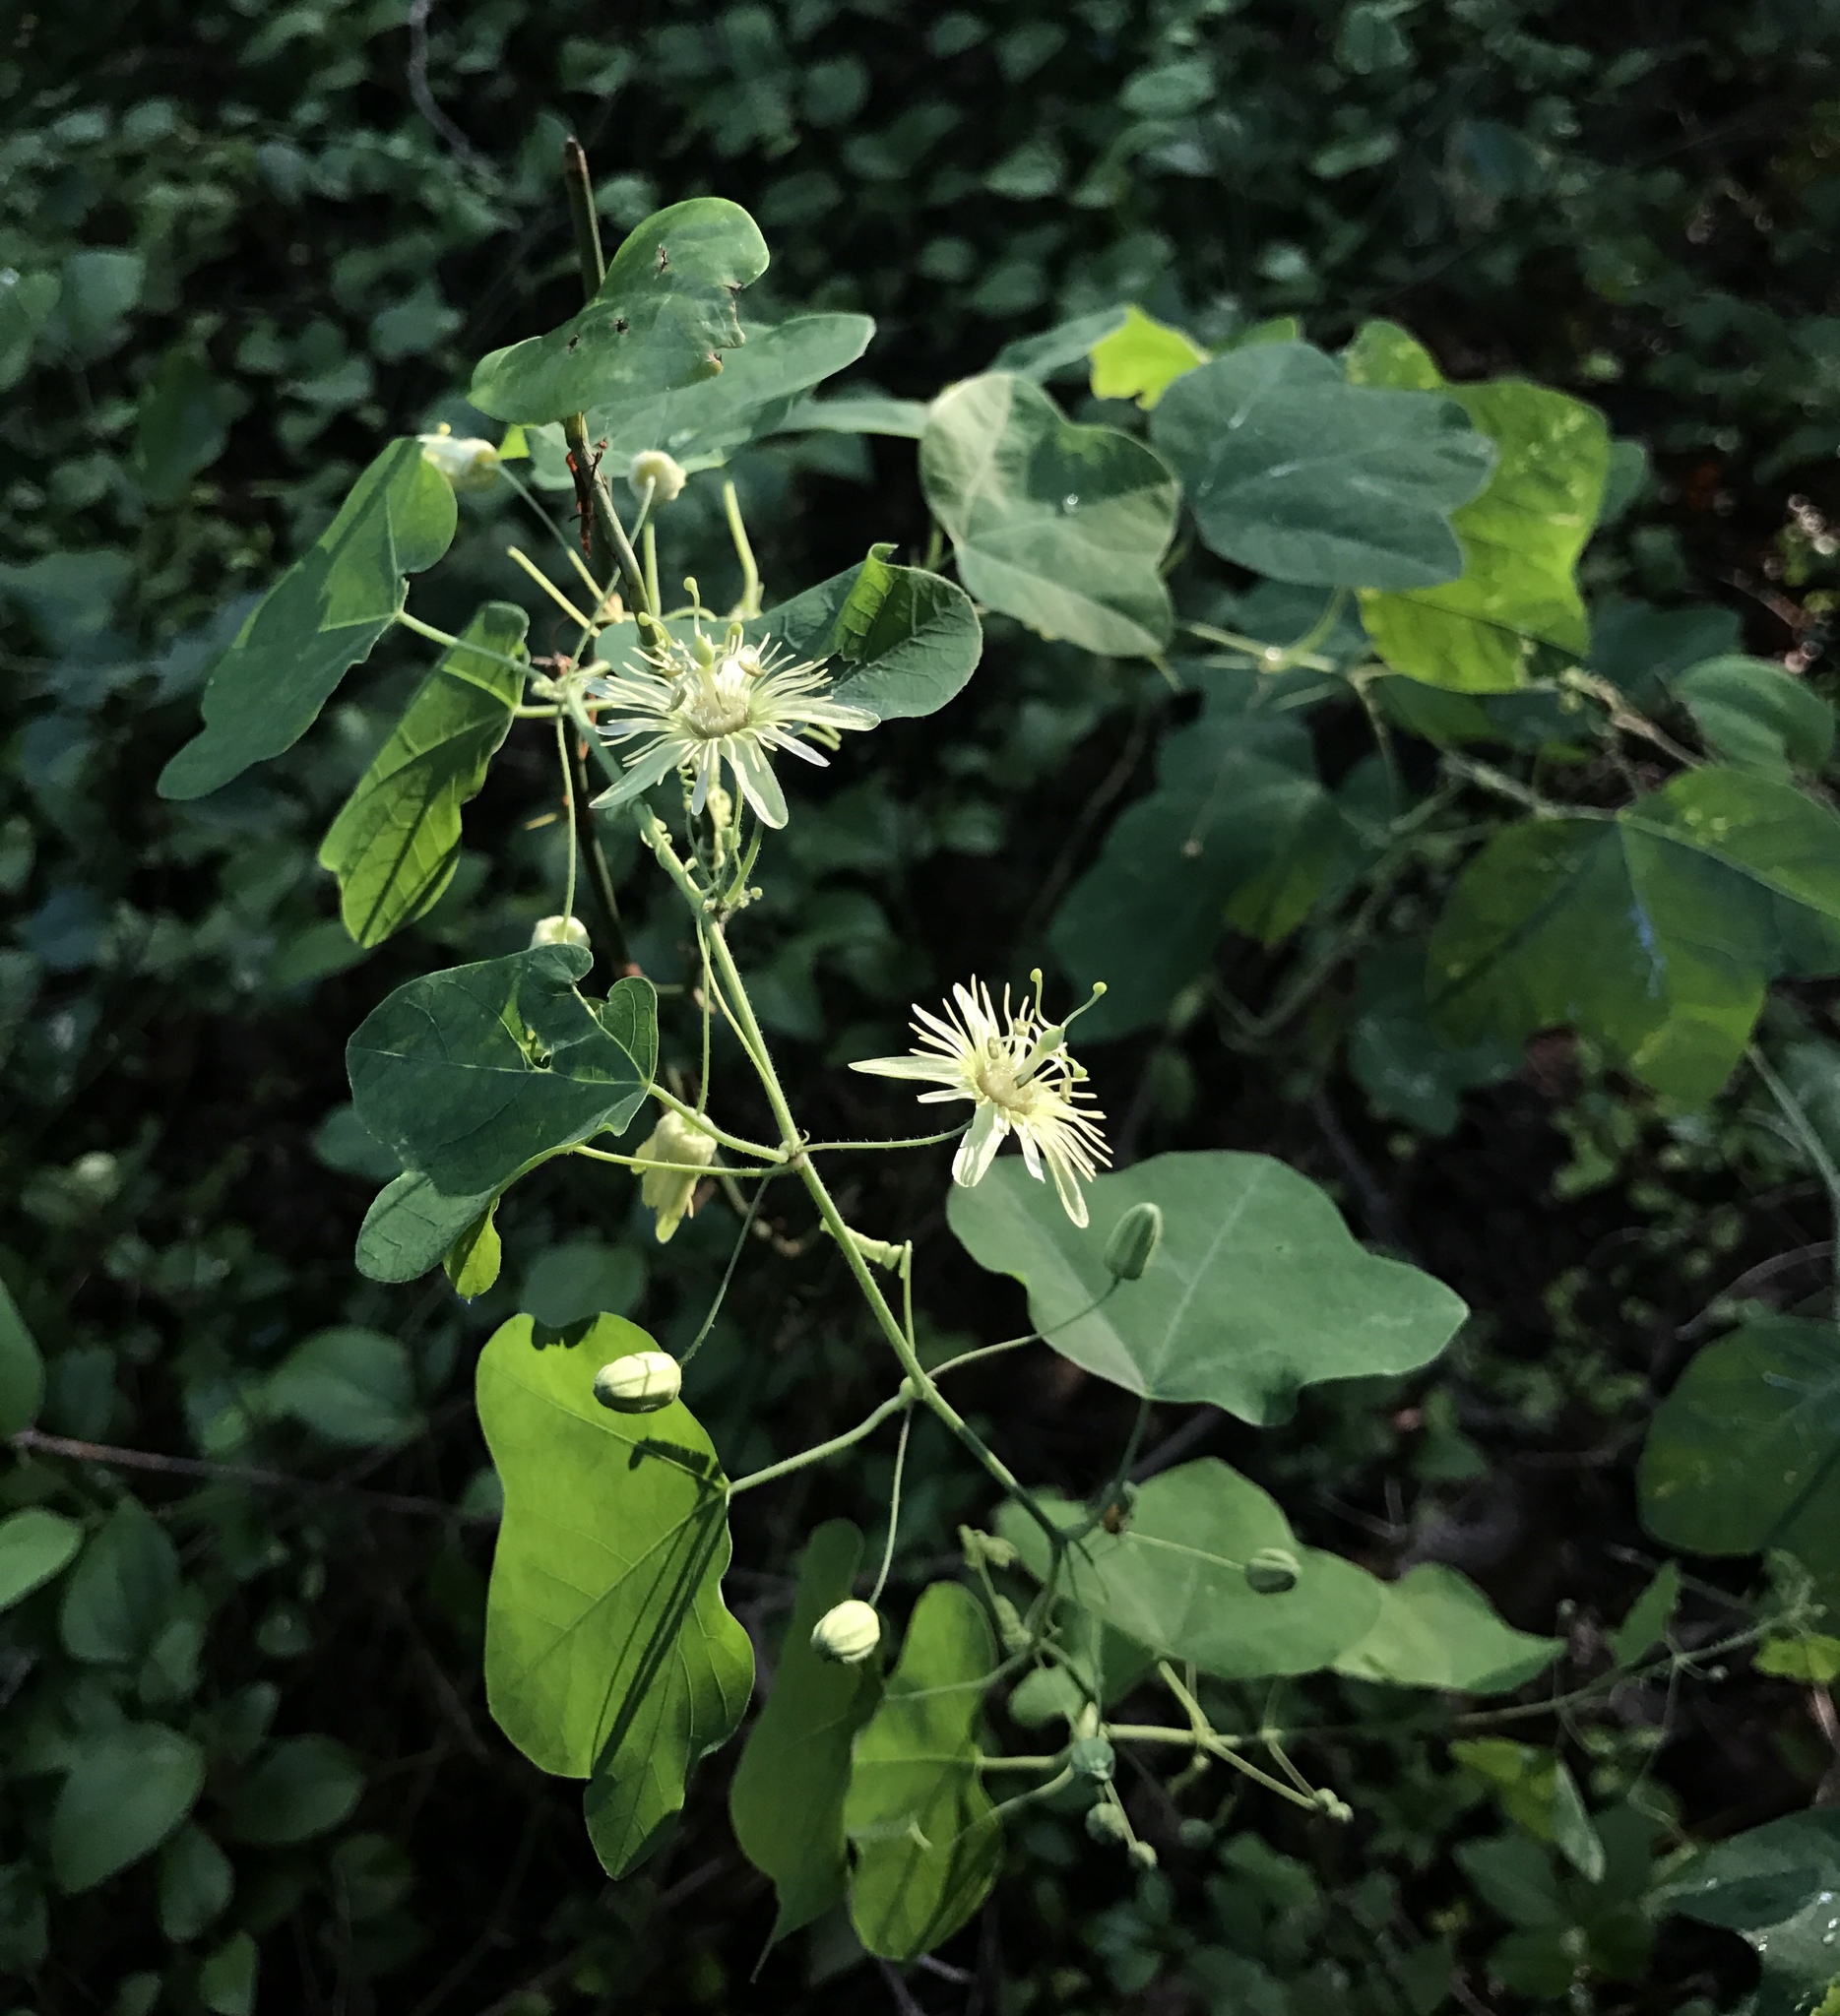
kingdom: Plantae
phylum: Tracheophyta
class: Magnoliopsida
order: Malpighiales
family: Passifloraceae
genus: Passiflora
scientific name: Passiflora lutea
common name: Yellow passionflower
